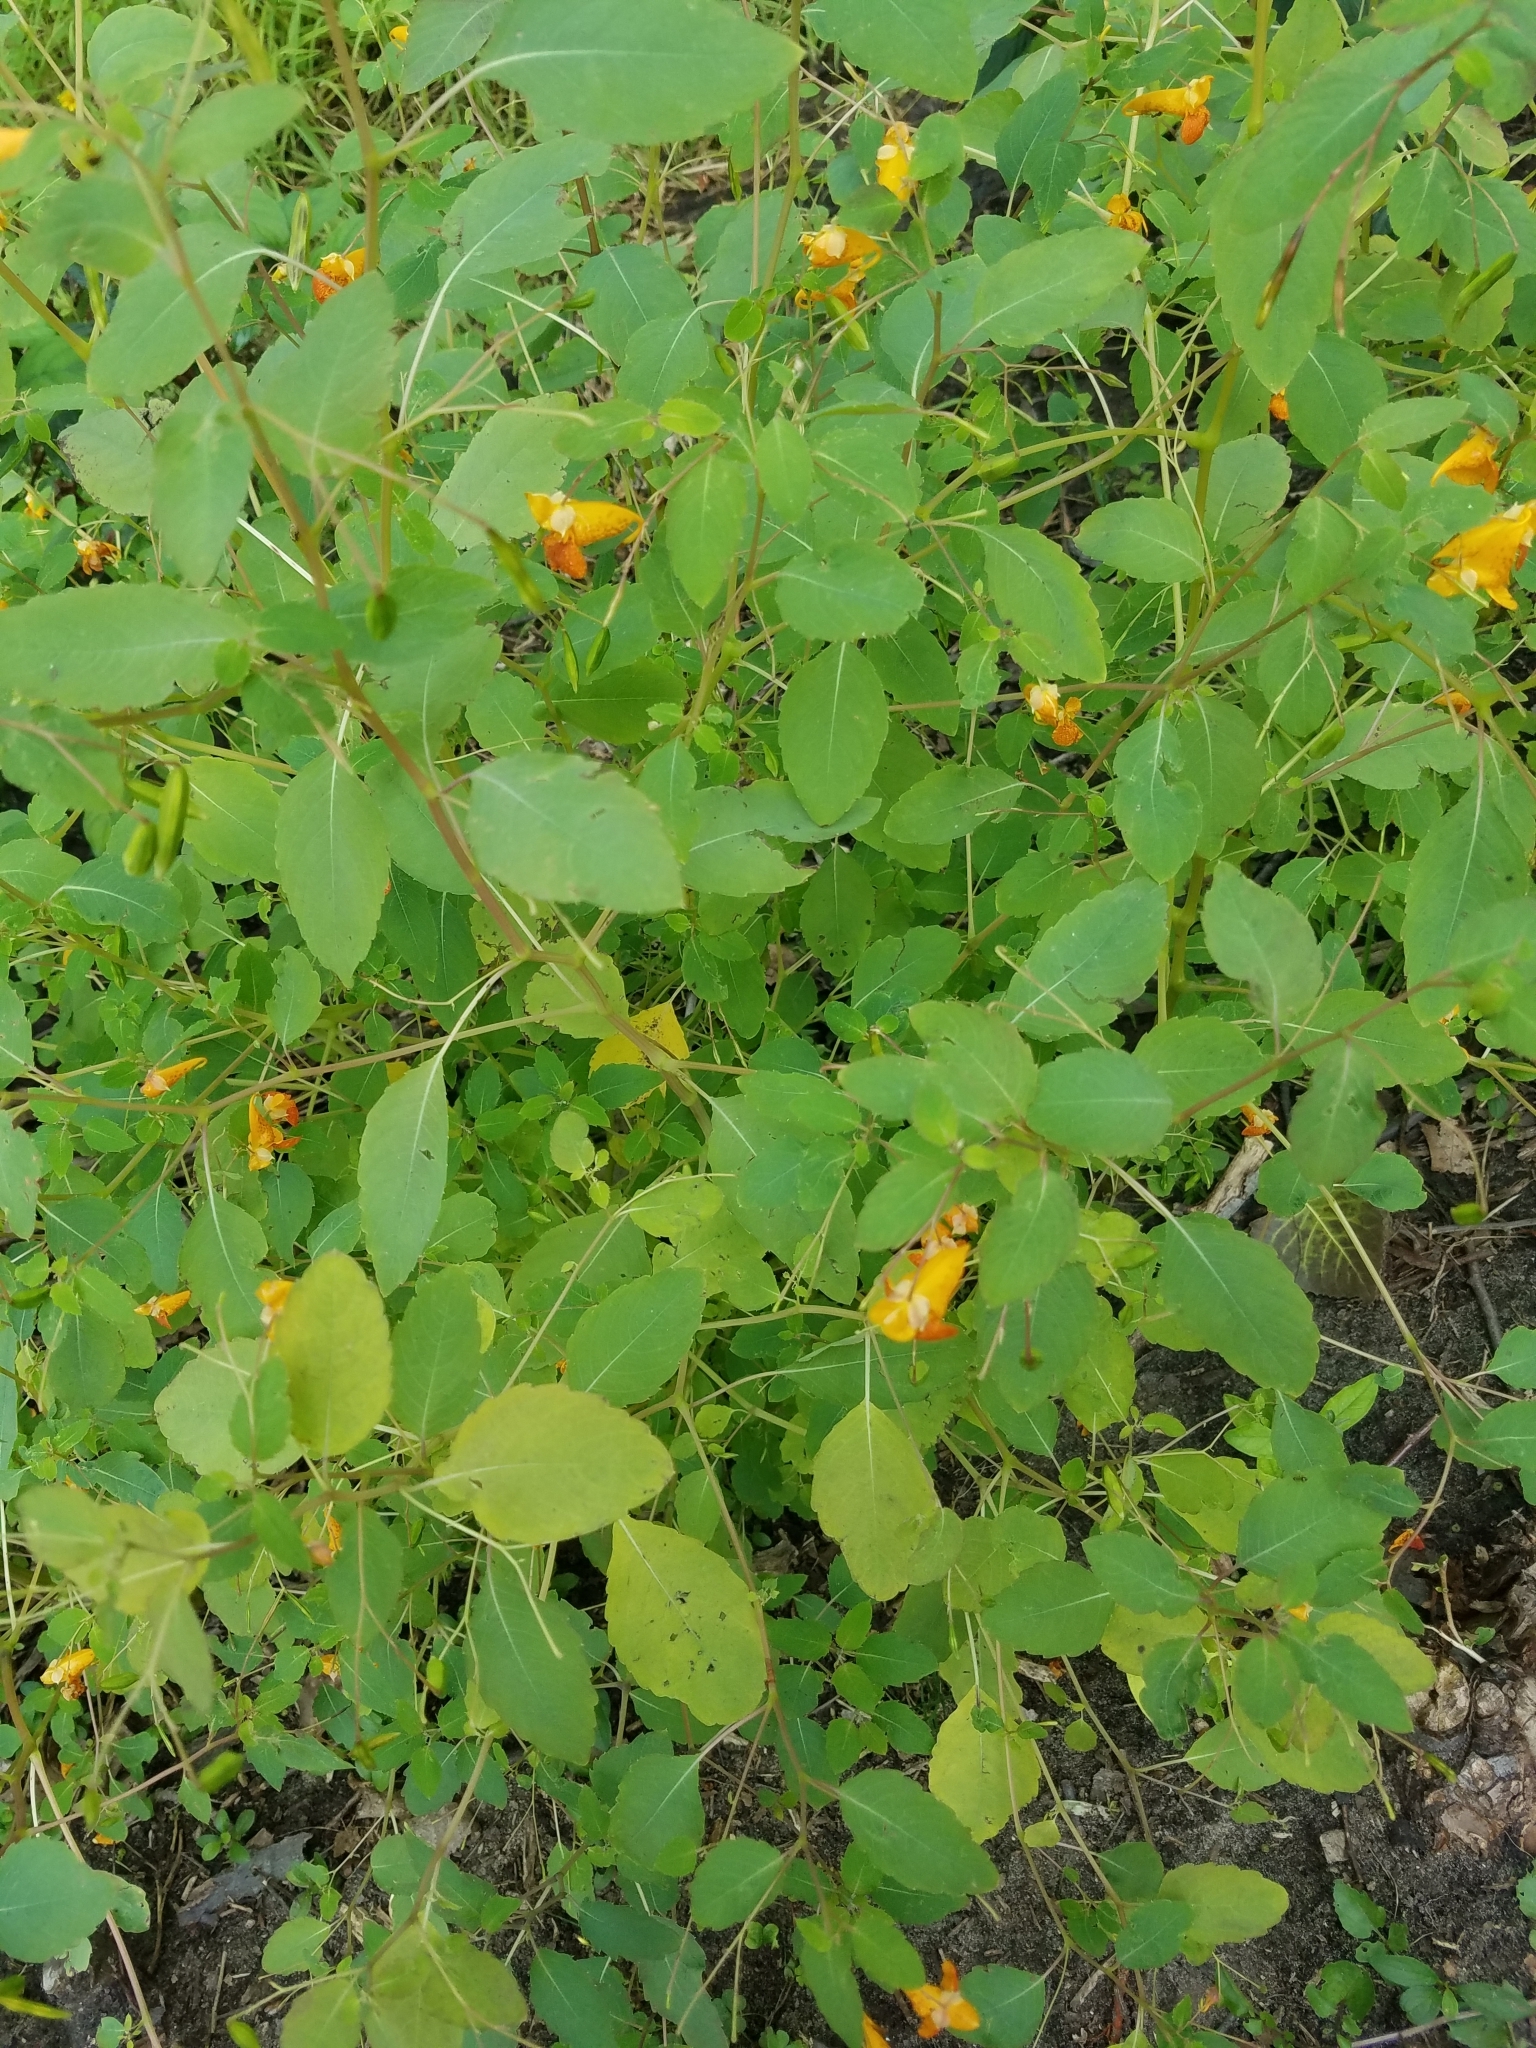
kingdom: Plantae
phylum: Tracheophyta
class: Magnoliopsida
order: Ericales
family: Balsaminaceae
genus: Impatiens
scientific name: Impatiens capensis
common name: Orange balsam
